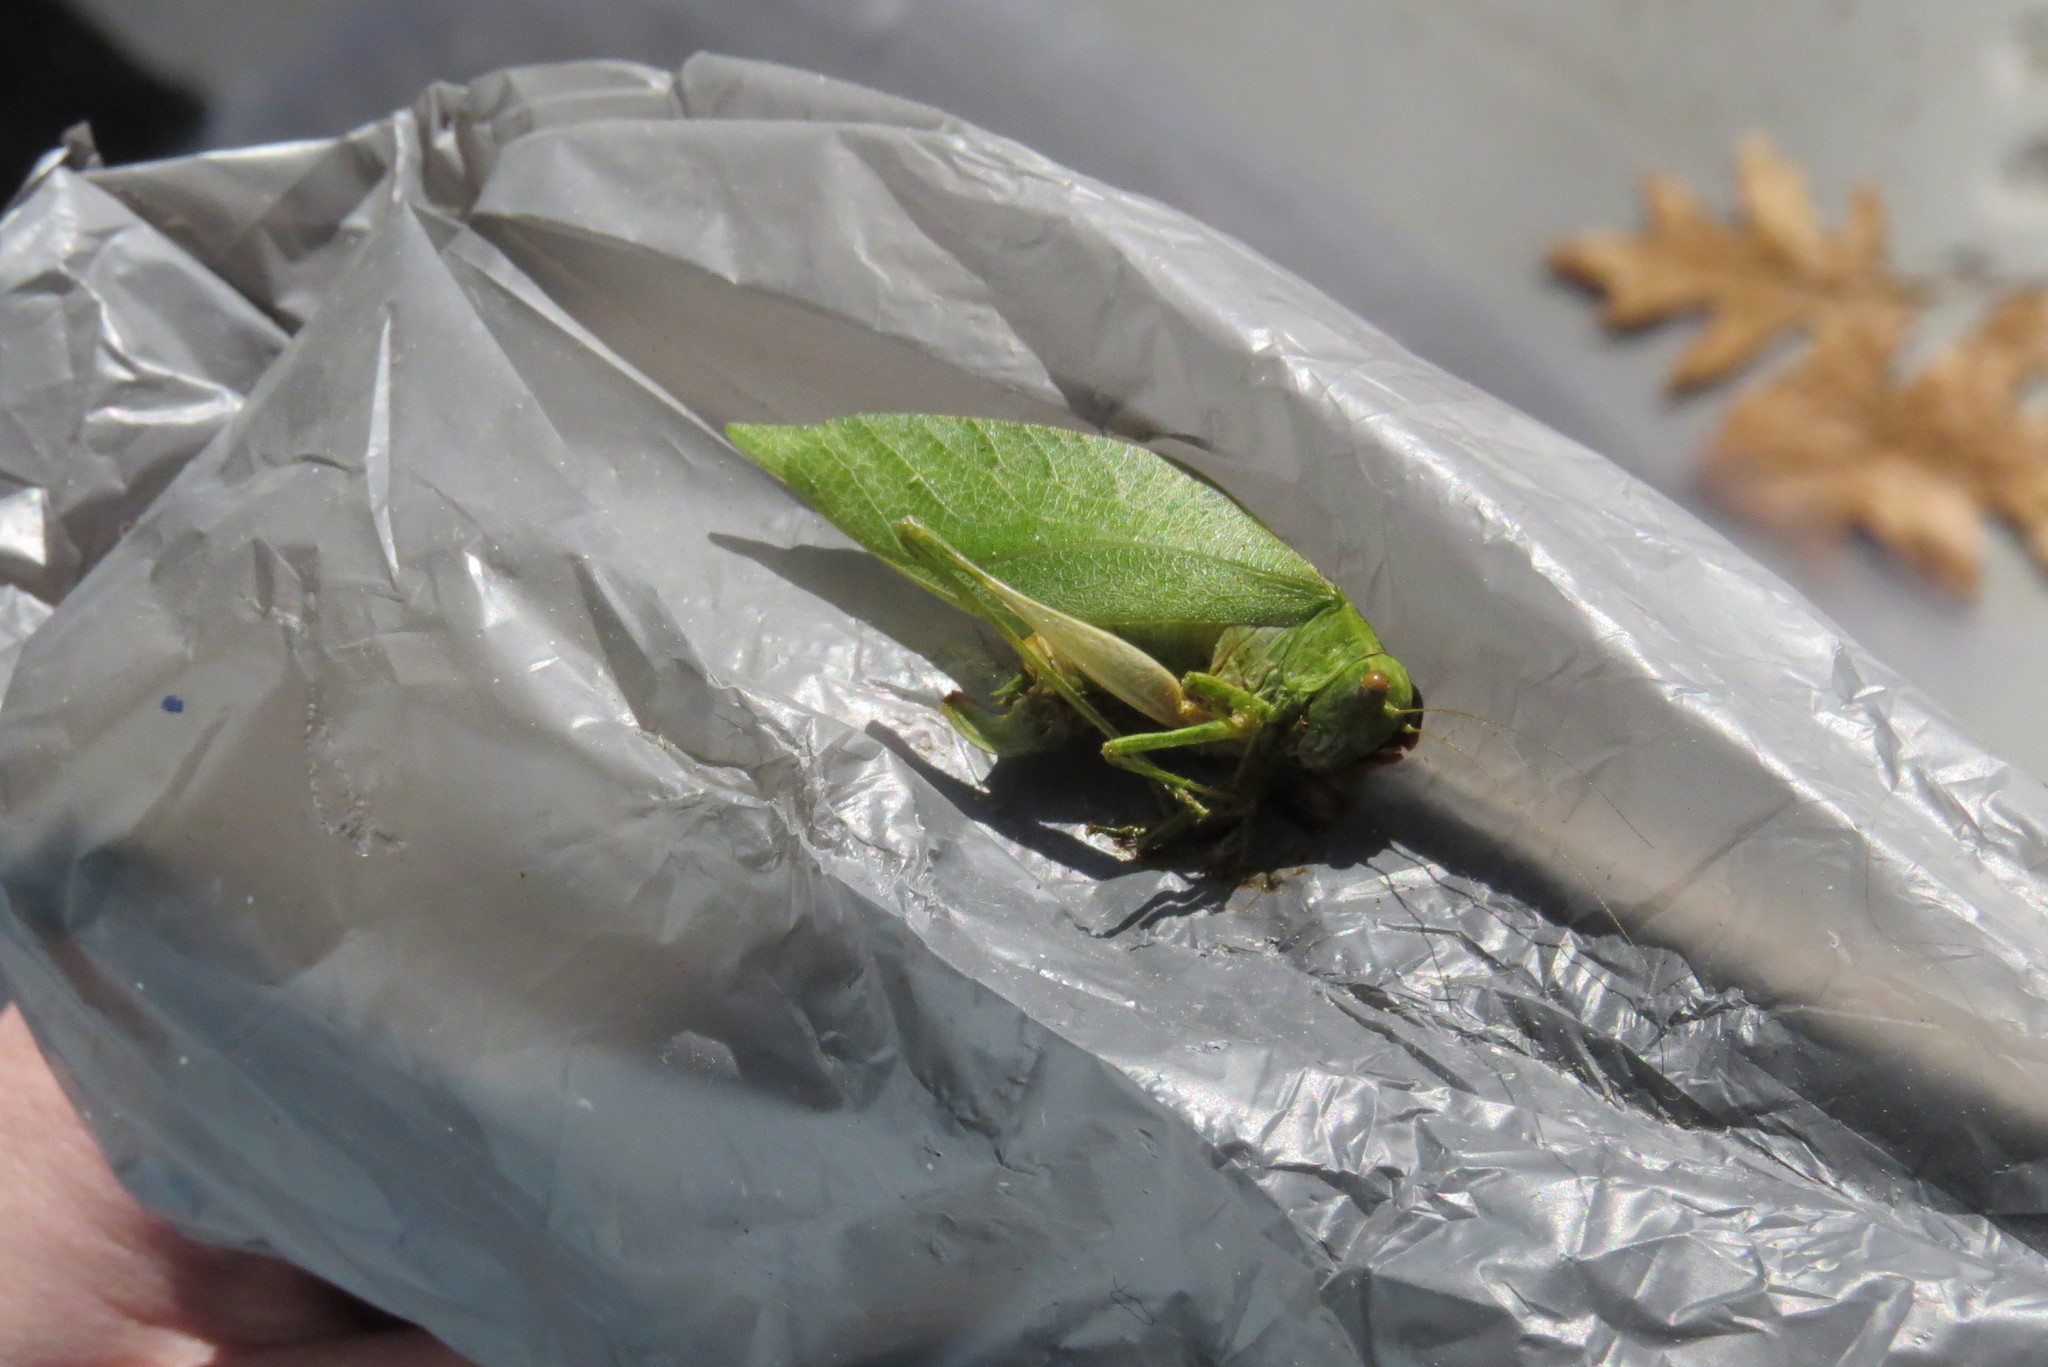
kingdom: Animalia
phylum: Arthropoda
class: Insecta
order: Orthoptera
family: Tettigoniidae
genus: Microcentrum
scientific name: Microcentrum retinerve
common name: Angular-winged katydid
